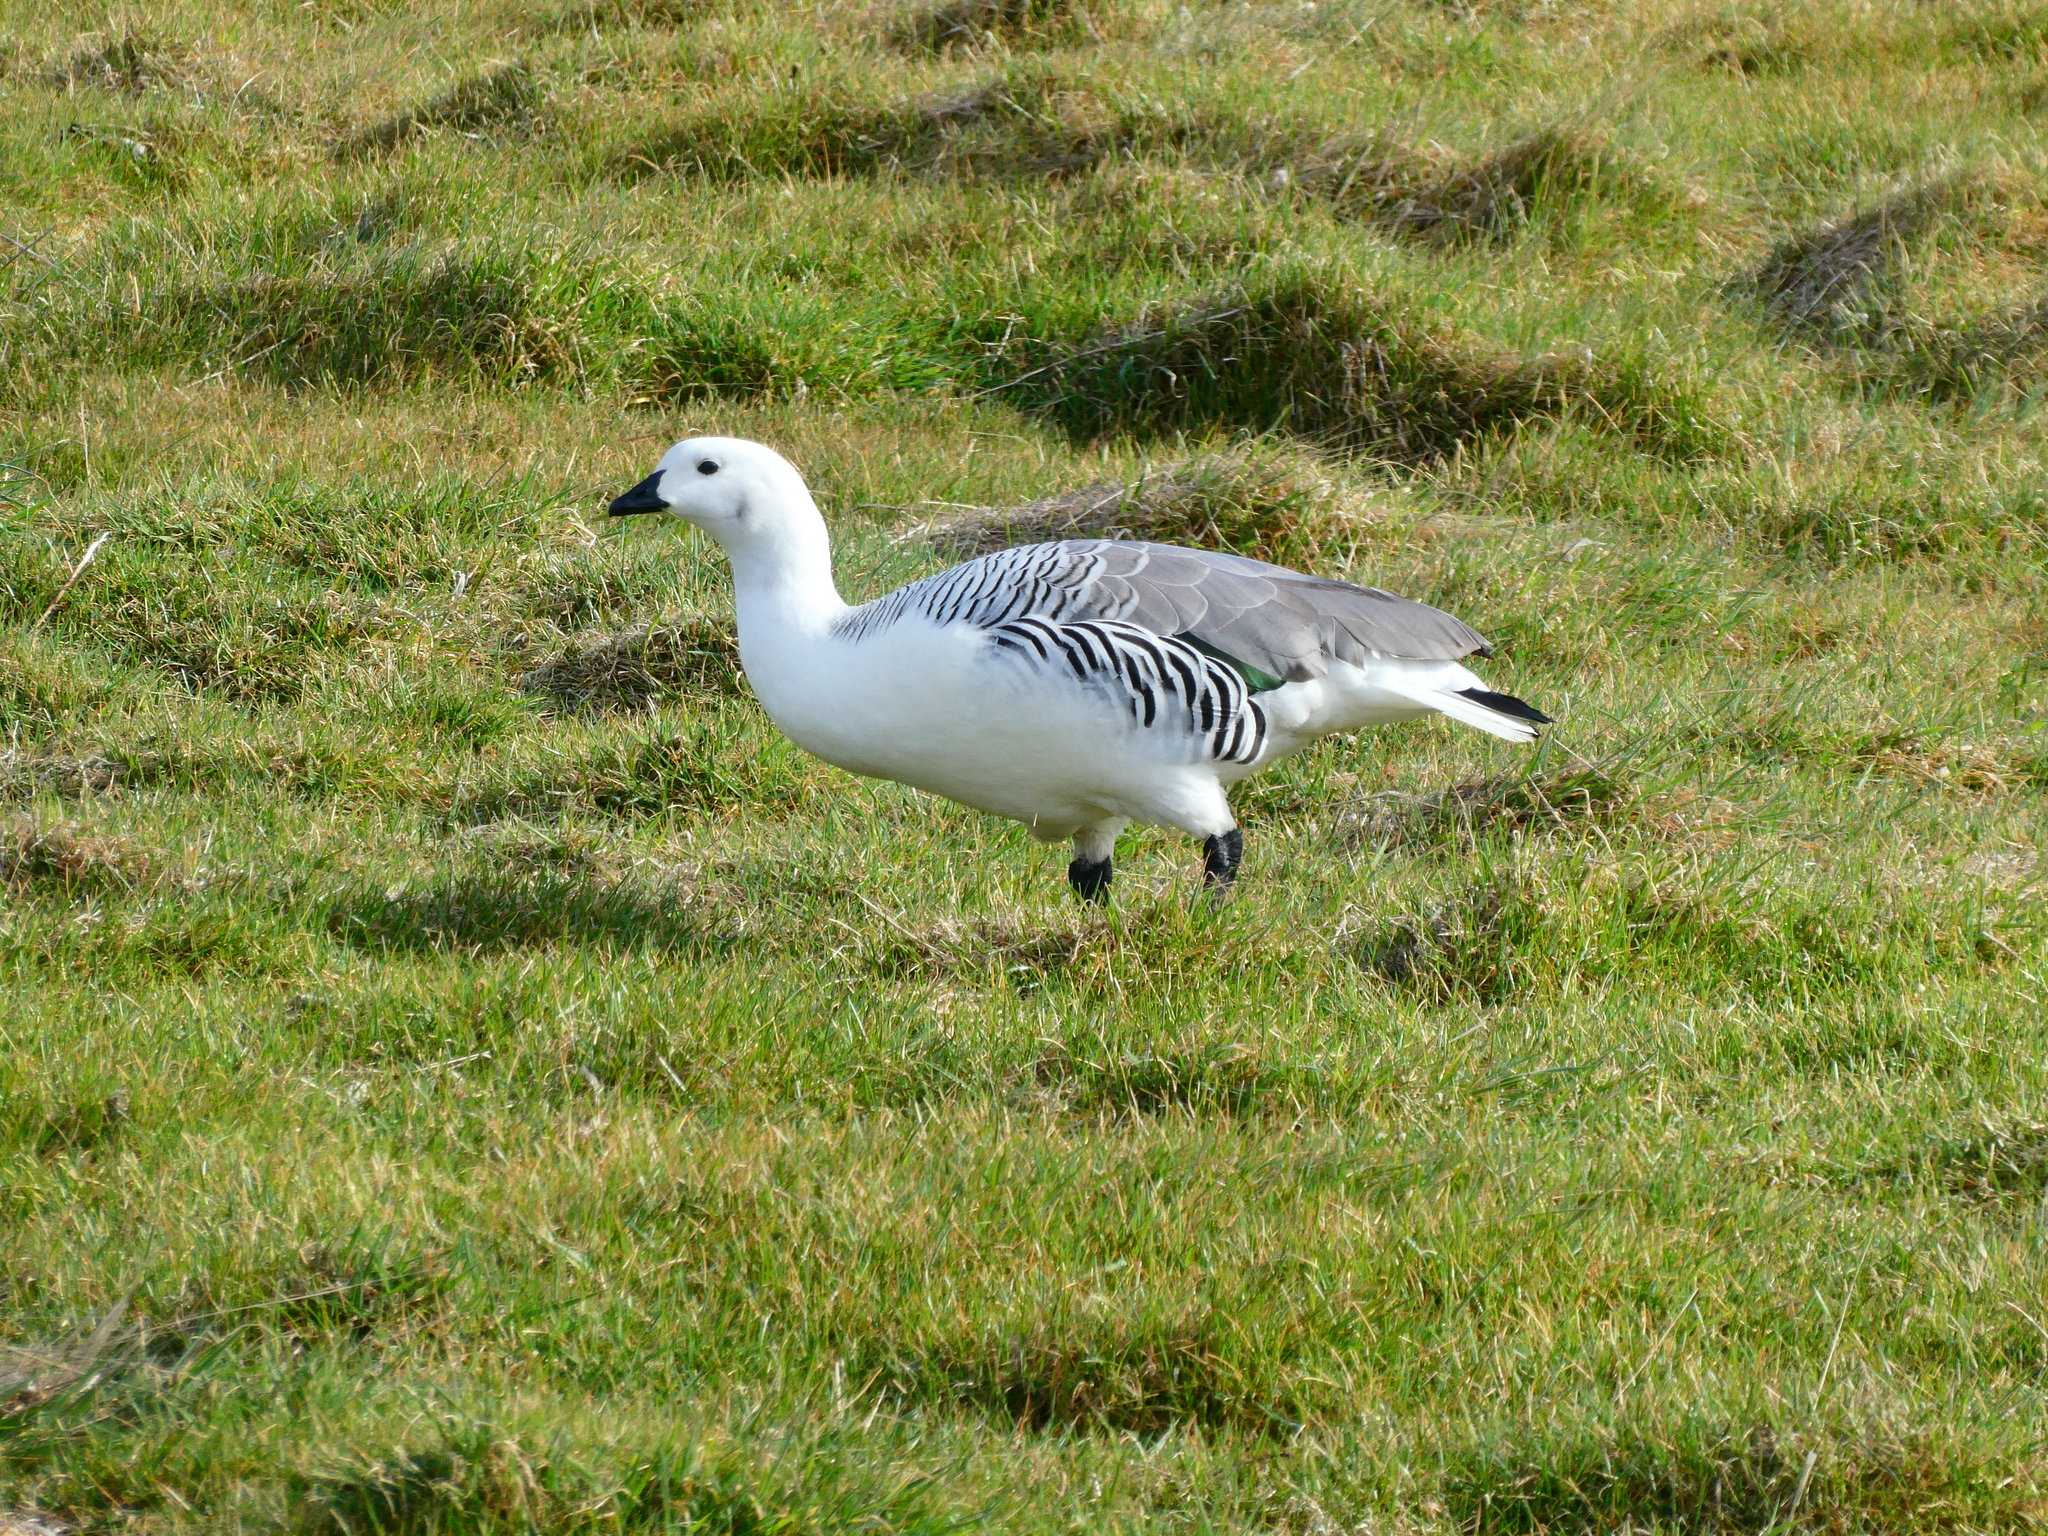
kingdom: Animalia
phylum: Chordata
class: Aves
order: Anseriformes
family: Anatidae
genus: Chloephaga
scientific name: Chloephaga picta
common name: Upland goose
